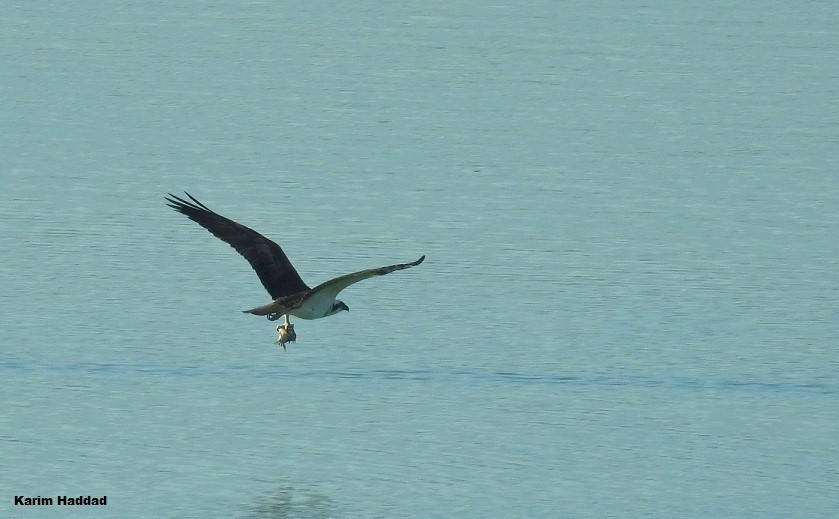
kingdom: Animalia
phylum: Chordata
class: Aves
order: Accipitriformes
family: Pandionidae
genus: Pandion
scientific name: Pandion haliaetus
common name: Osprey
